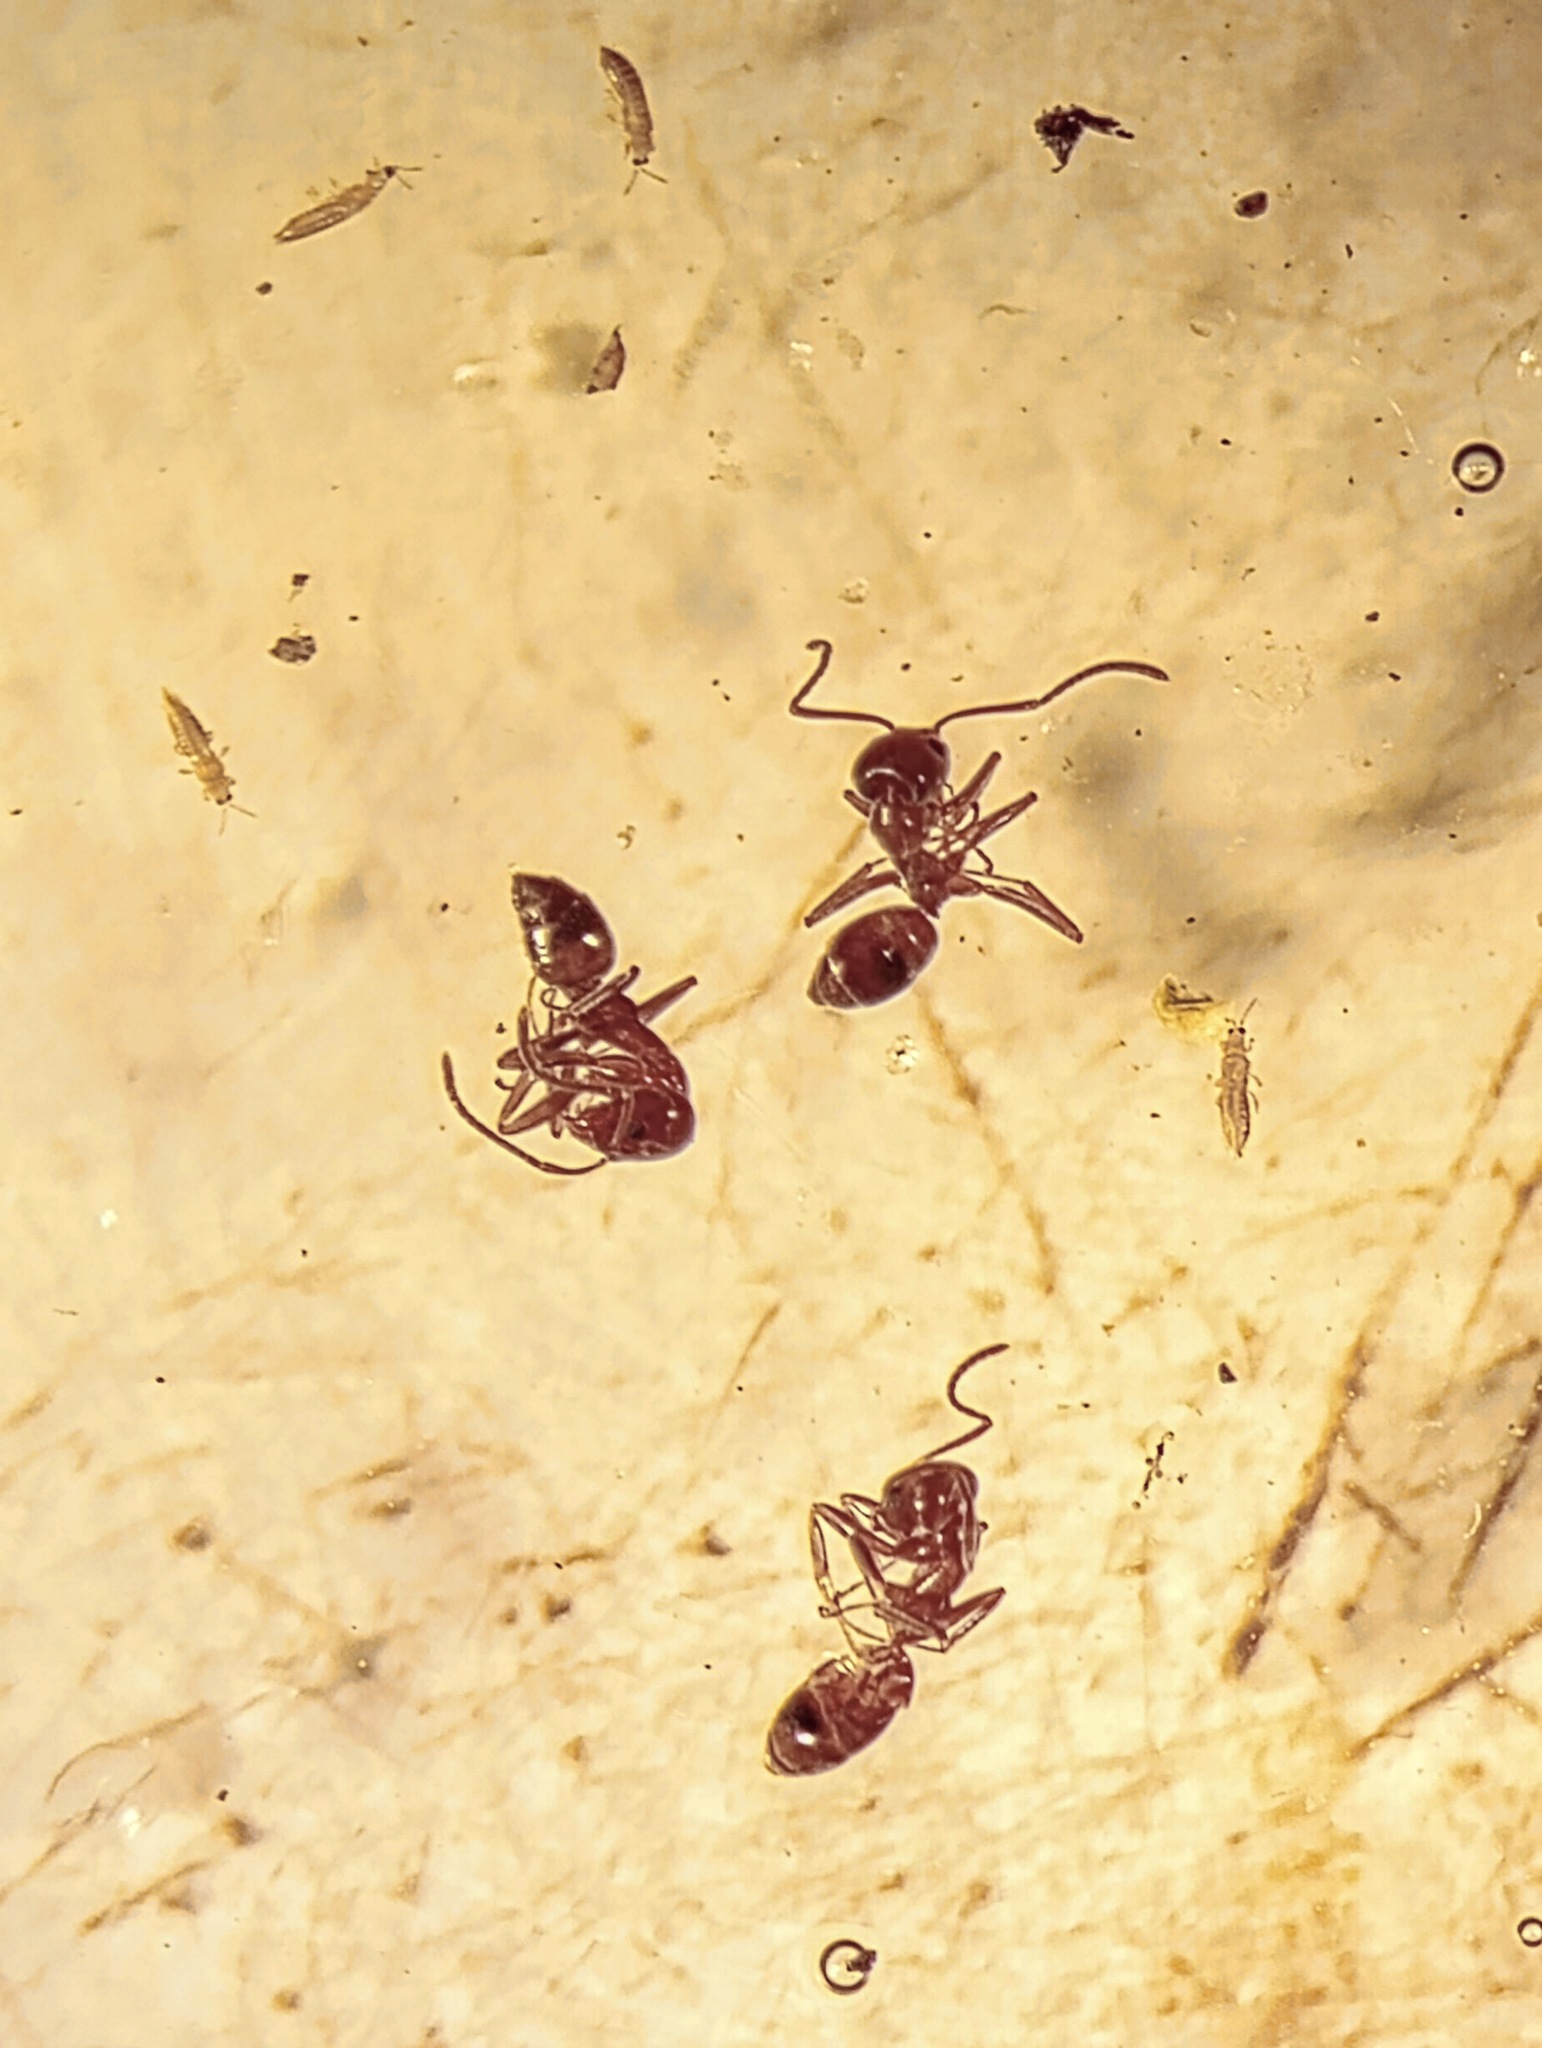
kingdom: Animalia
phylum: Arthropoda
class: Insecta
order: Hymenoptera
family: Formicidae
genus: Linepithema
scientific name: Linepithema humile
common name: Argentine ant
